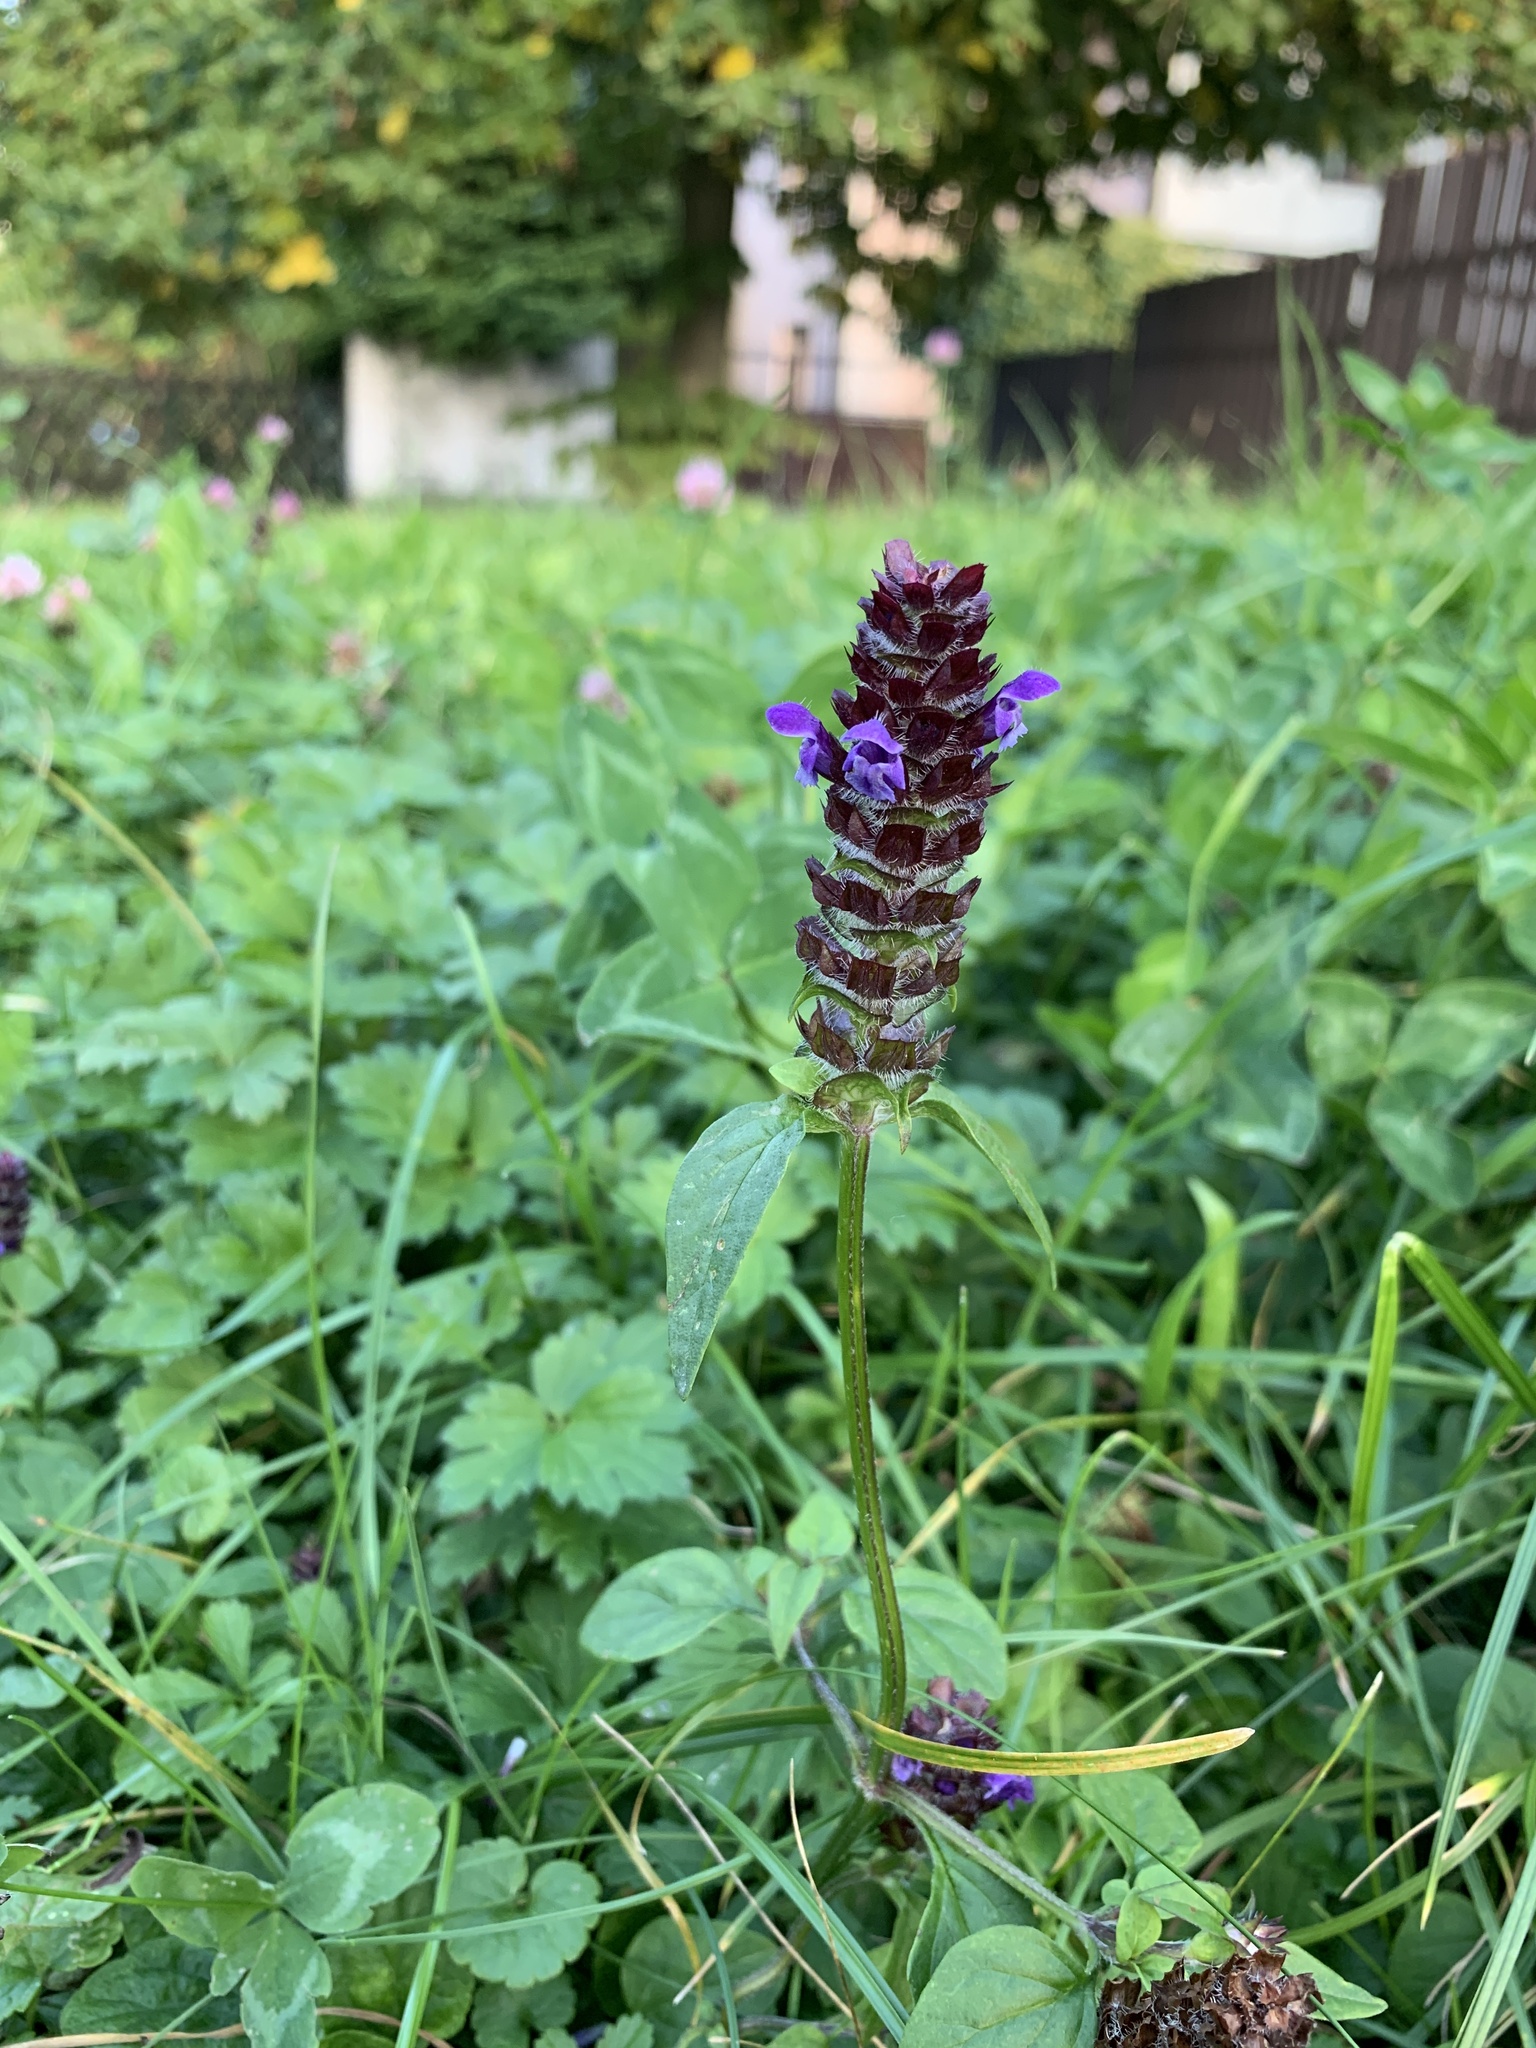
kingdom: Plantae
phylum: Tracheophyta
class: Magnoliopsida
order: Lamiales
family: Lamiaceae
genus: Prunella
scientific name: Prunella vulgaris
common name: Heal-all
